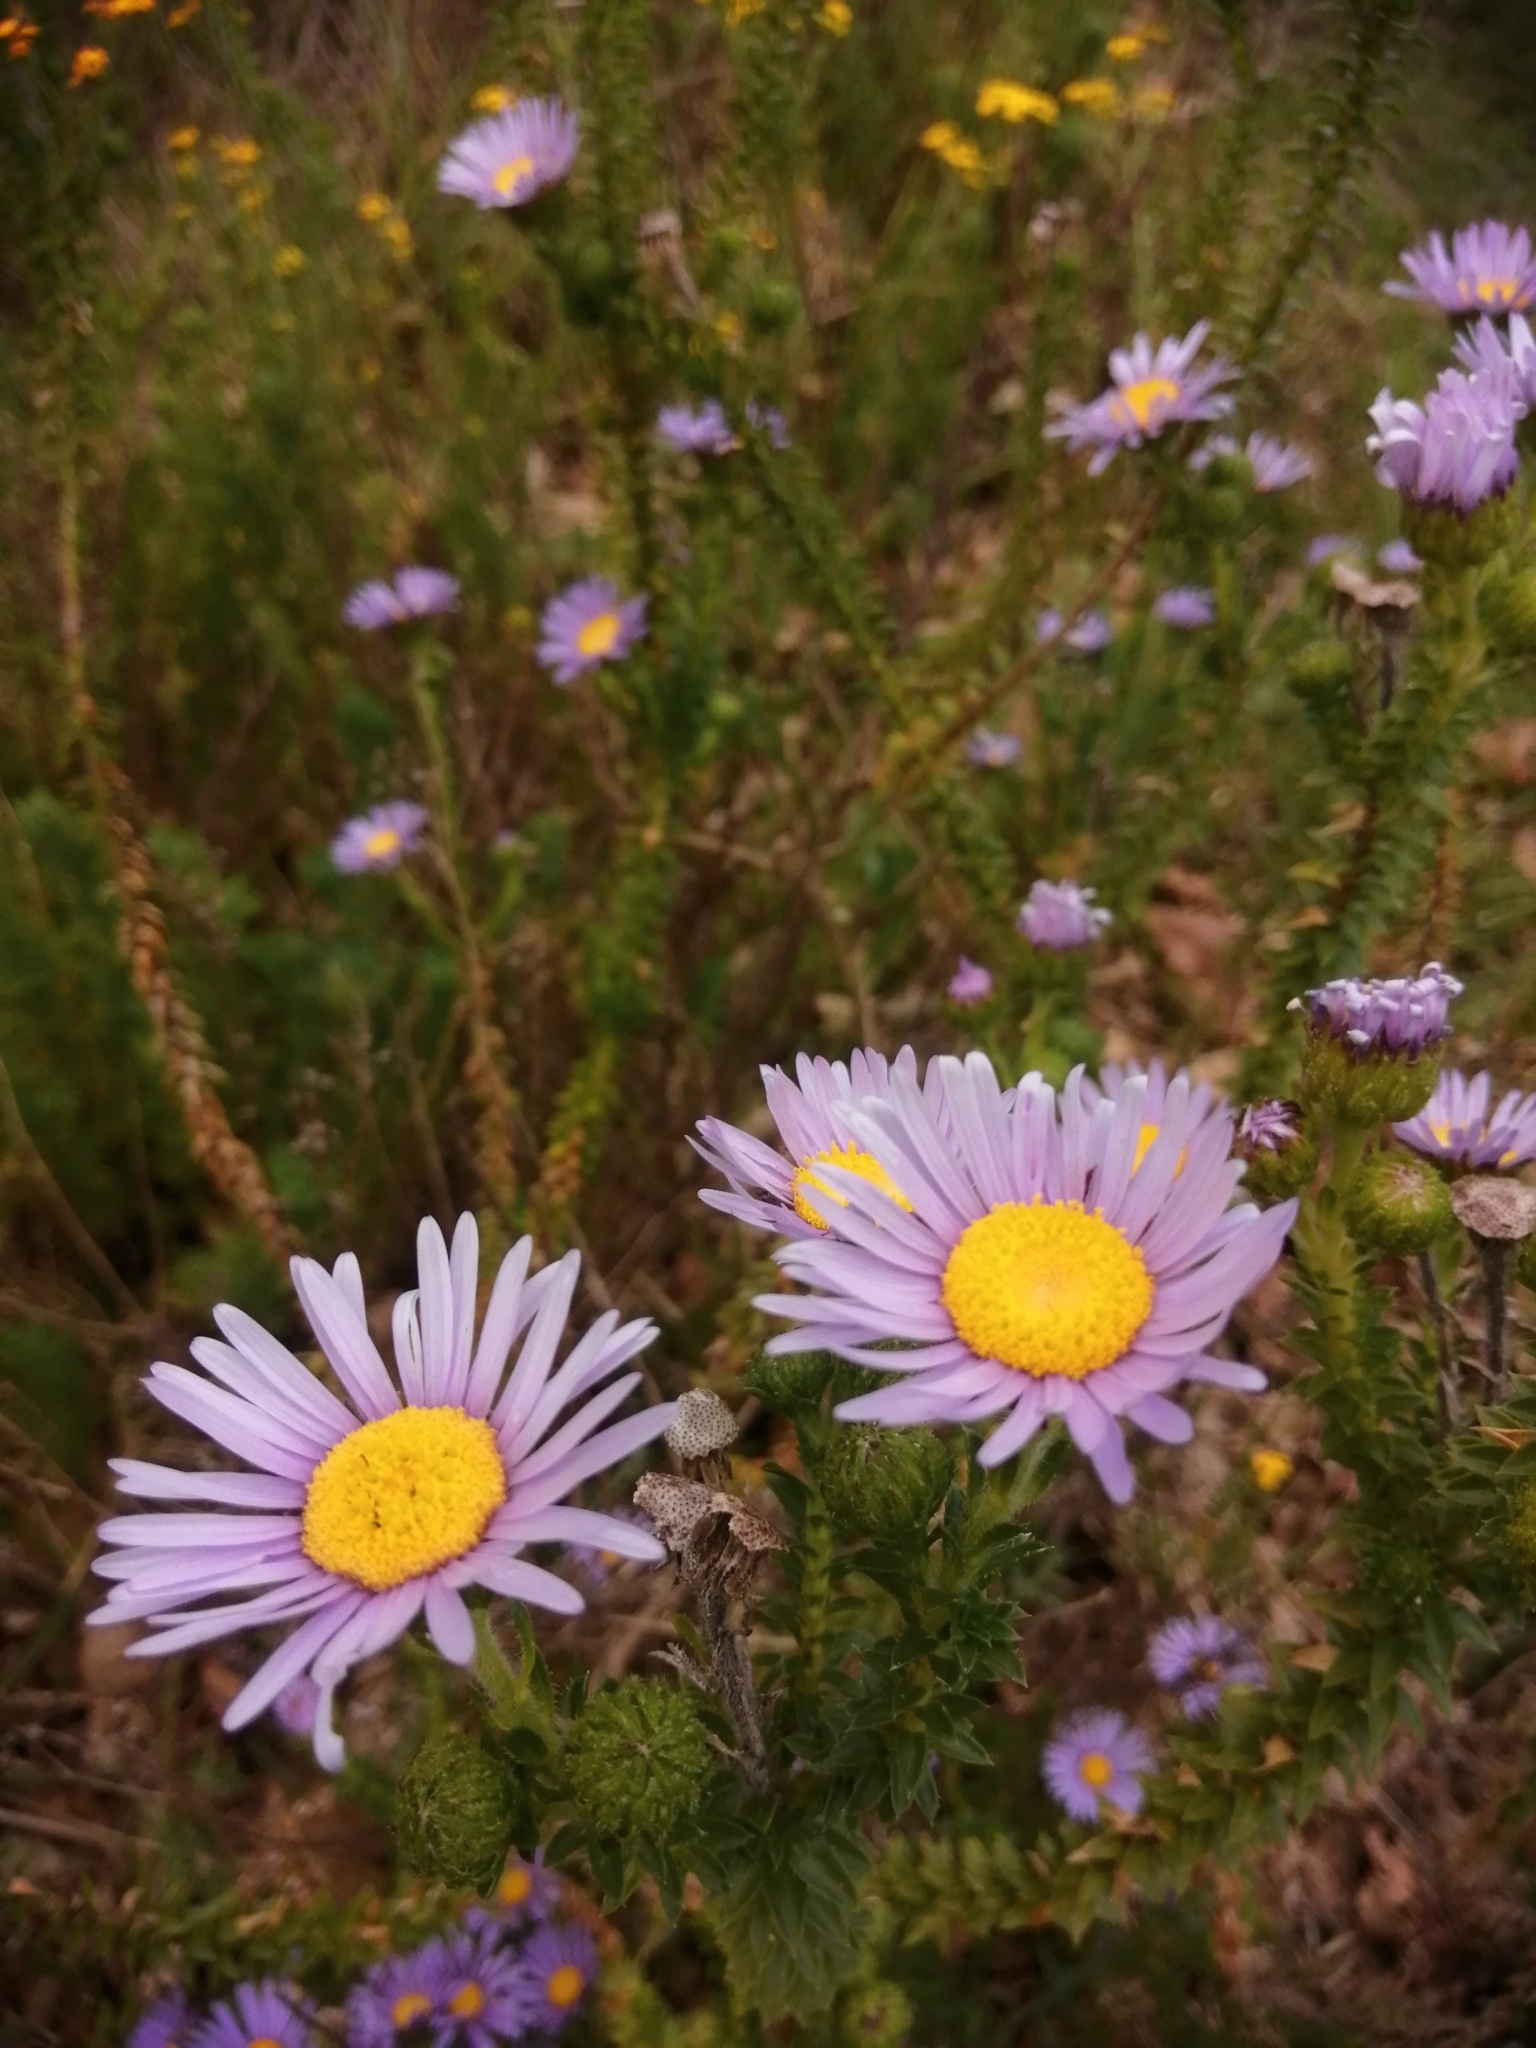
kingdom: Plantae
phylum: Tracheophyta
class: Magnoliopsida
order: Asterales
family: Asteraceae
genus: Felicia
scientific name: Felicia echinata
